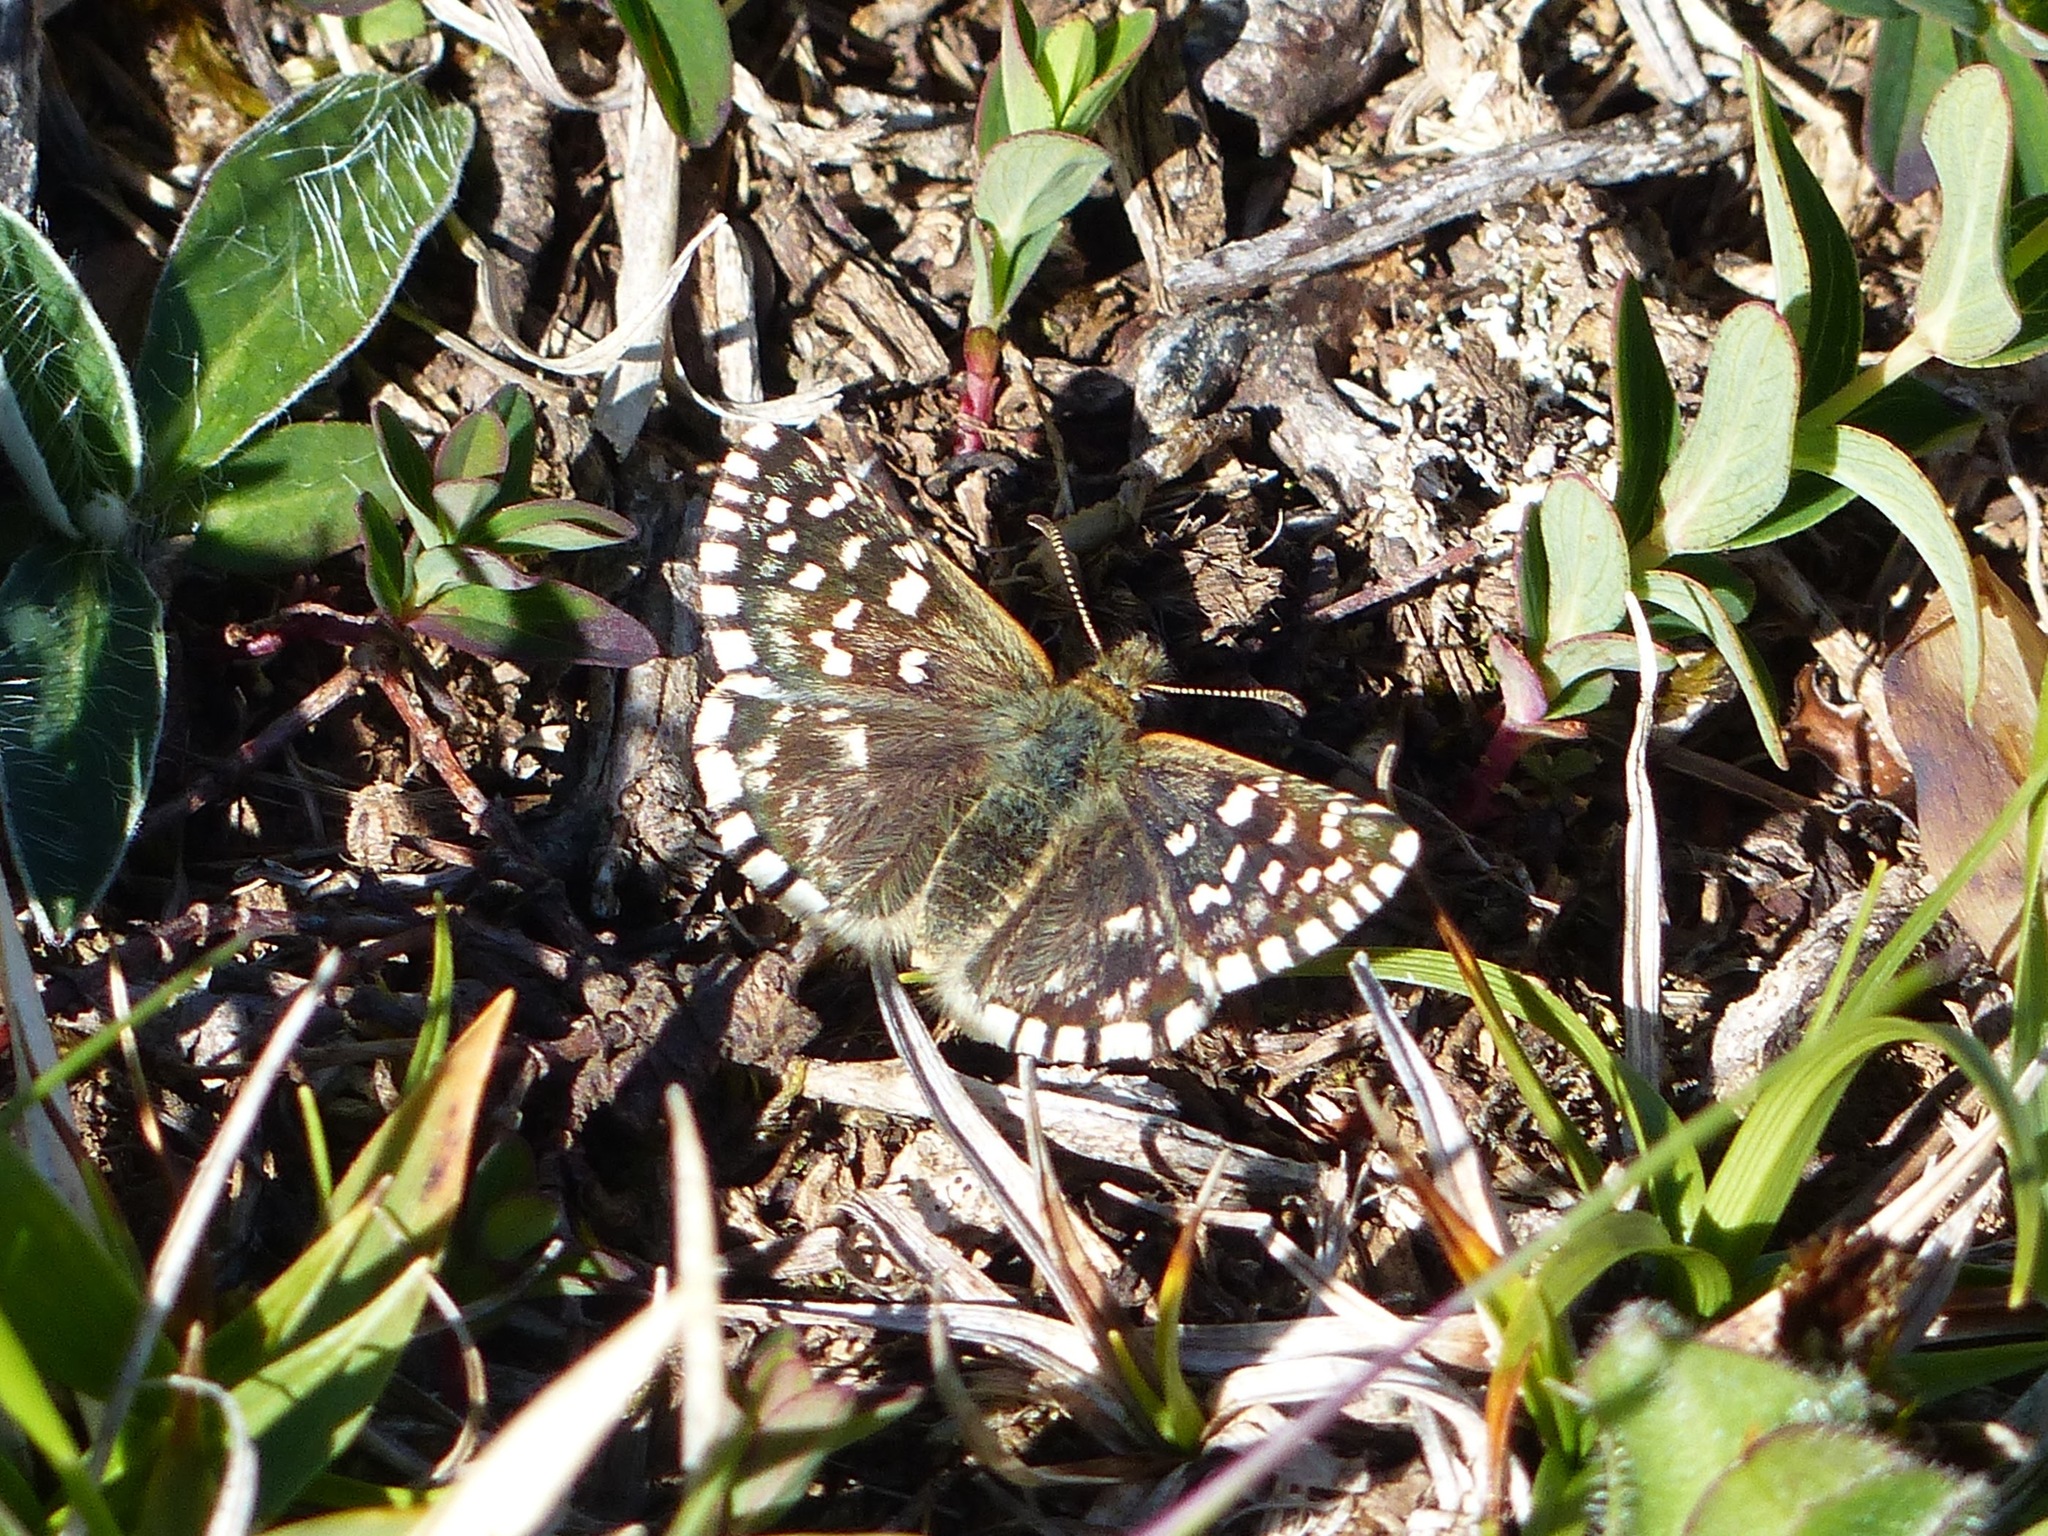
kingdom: Animalia
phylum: Arthropoda
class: Insecta
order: Lepidoptera
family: Hesperiidae
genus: Pyrgus
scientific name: Pyrgus malvoides
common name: Southern grizzled skipper
